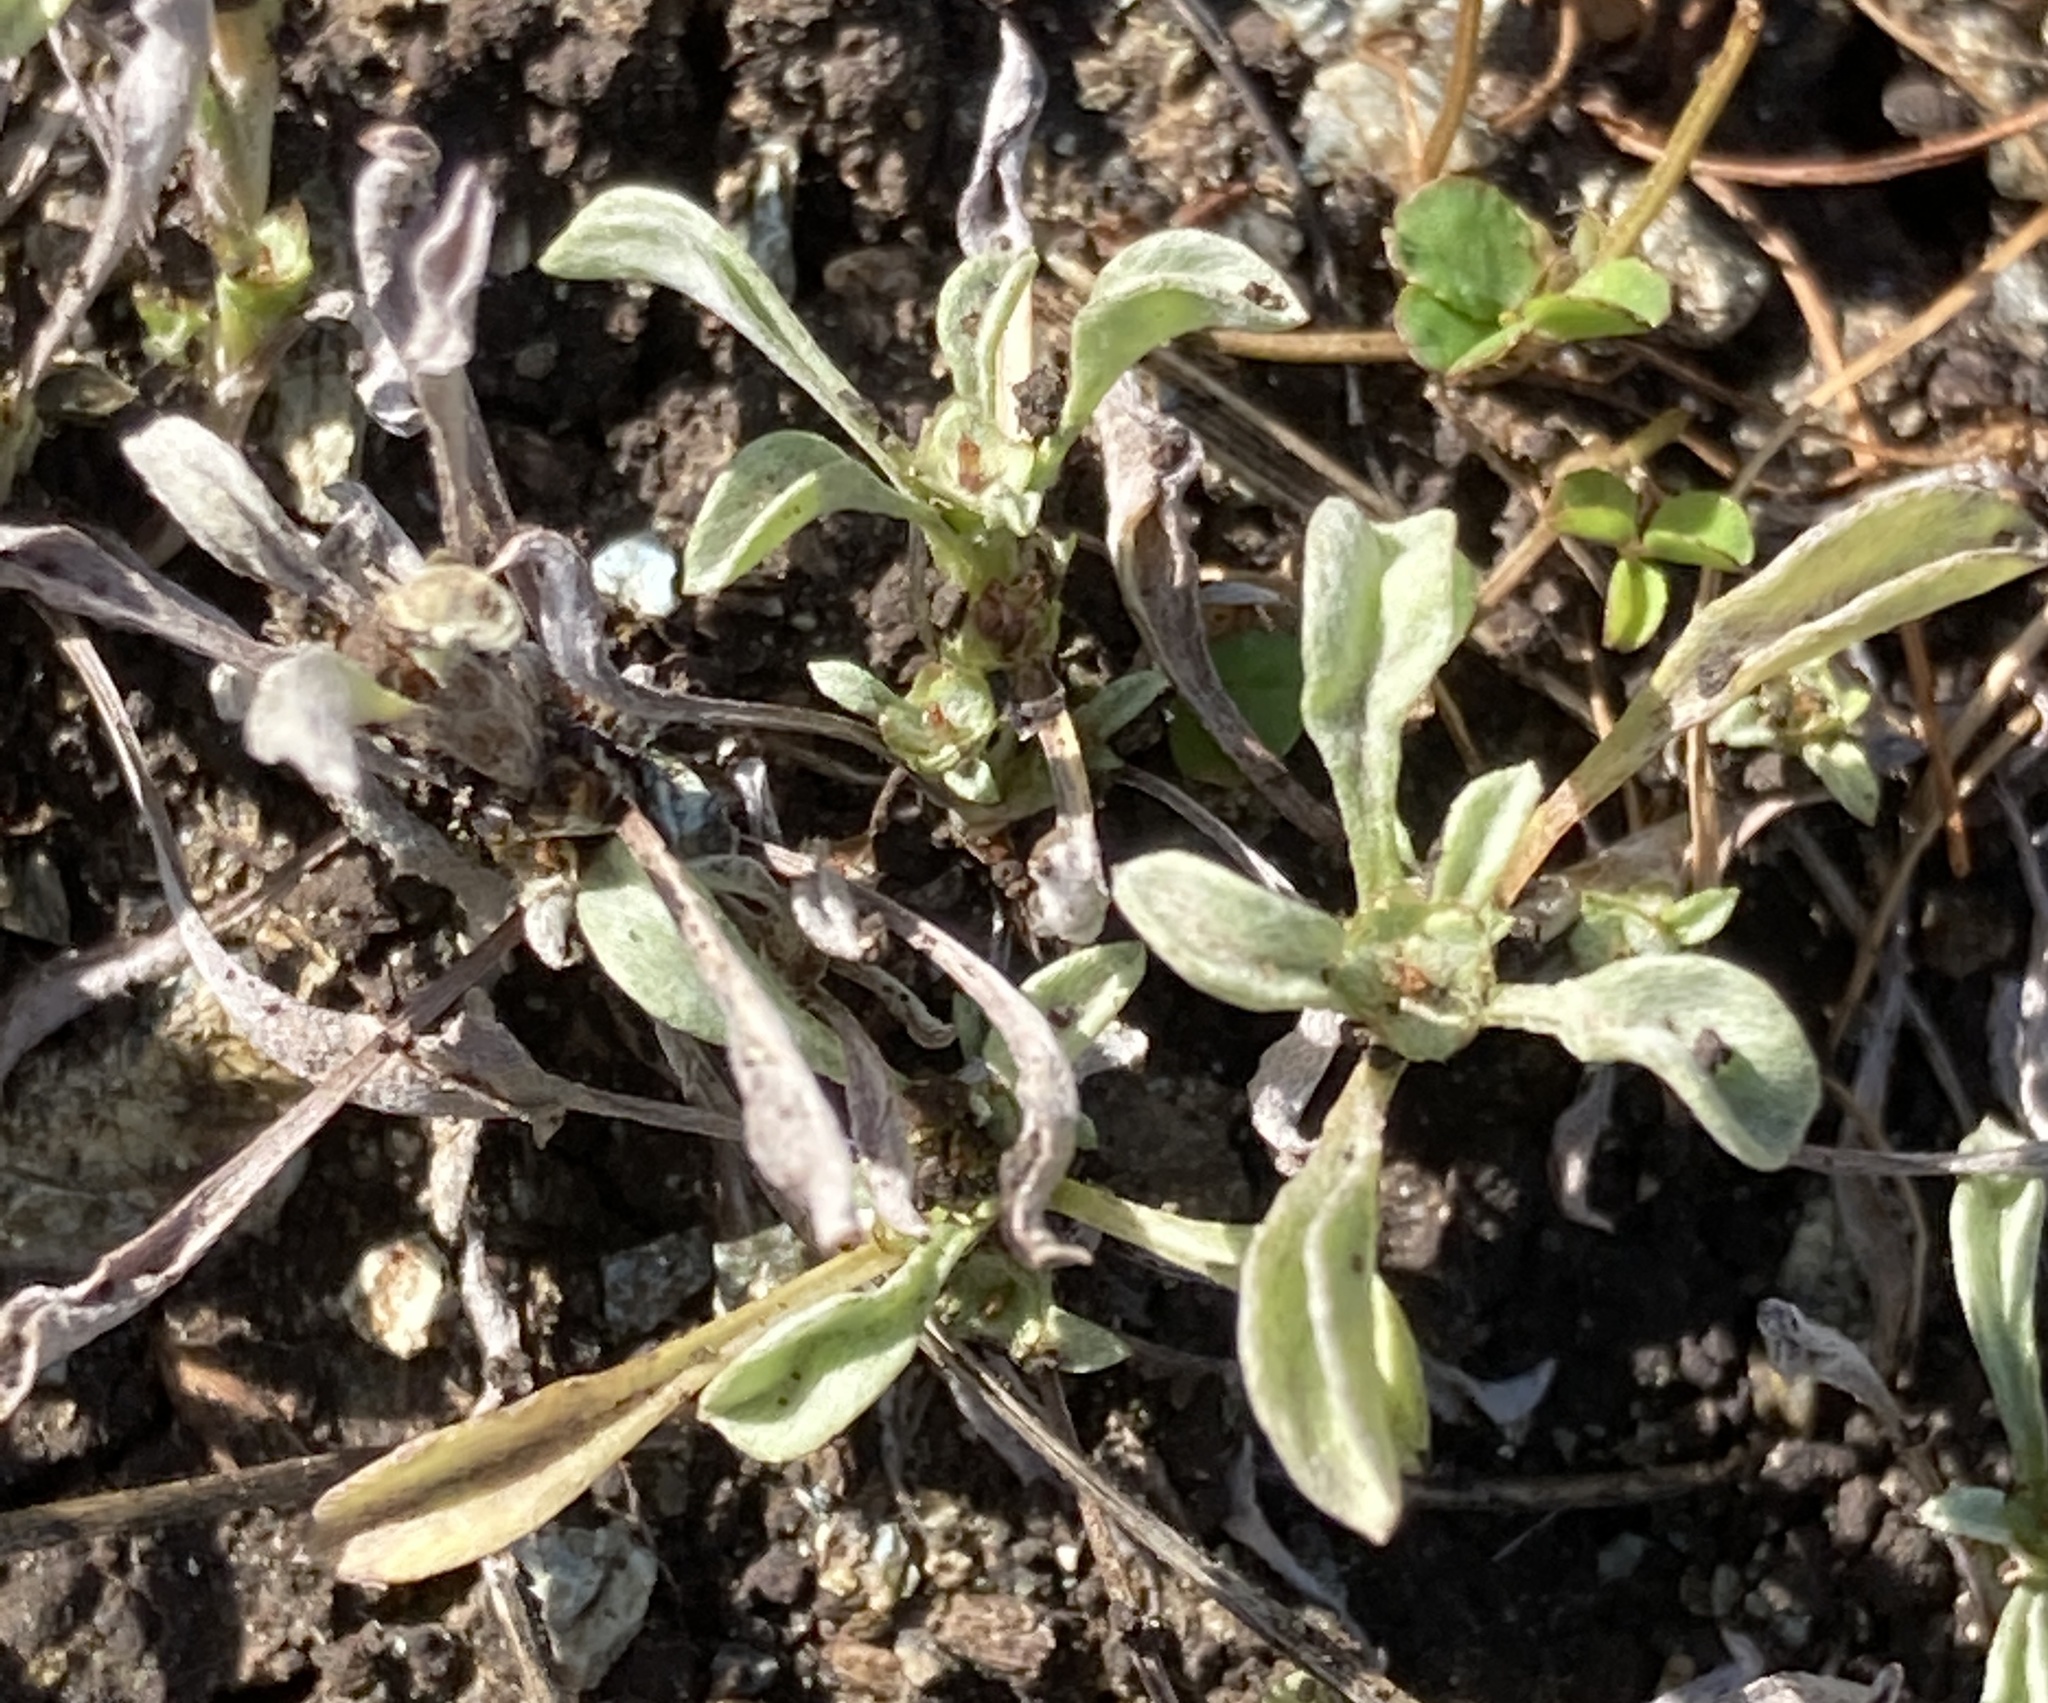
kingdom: Plantae
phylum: Tracheophyta
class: Magnoliopsida
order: Asterales
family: Asteraceae
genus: Hesperevax
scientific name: Hesperevax sparsiflora
